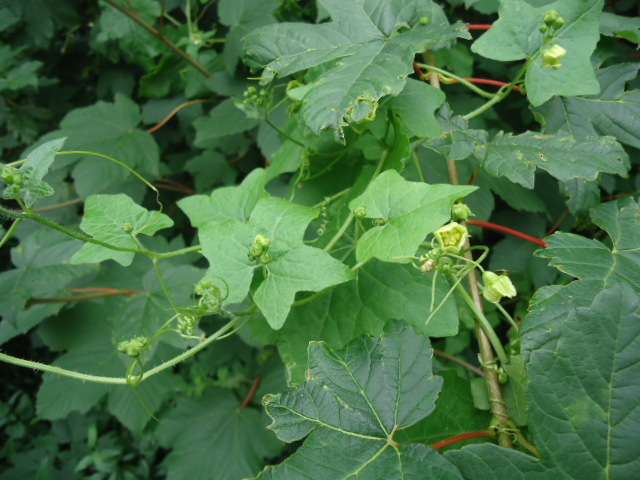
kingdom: Plantae
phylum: Tracheophyta
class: Magnoliopsida
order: Cucurbitales
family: Cucurbitaceae
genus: Bryonia
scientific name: Bryonia cretica
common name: Cretan bryony
